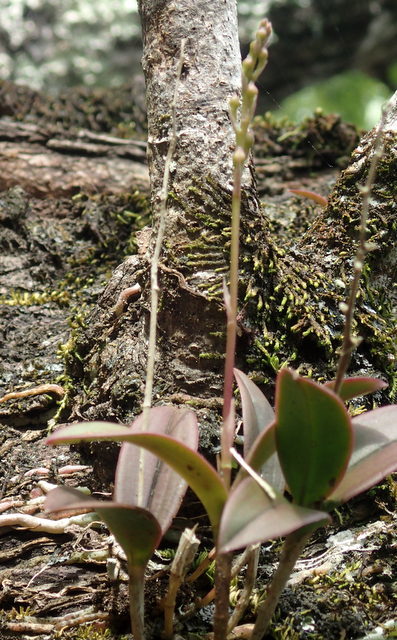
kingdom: Plantae
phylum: Tracheophyta
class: Liliopsida
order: Asparagales
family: Orchidaceae
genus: Epidendrum
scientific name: Epidendrum conopseum
